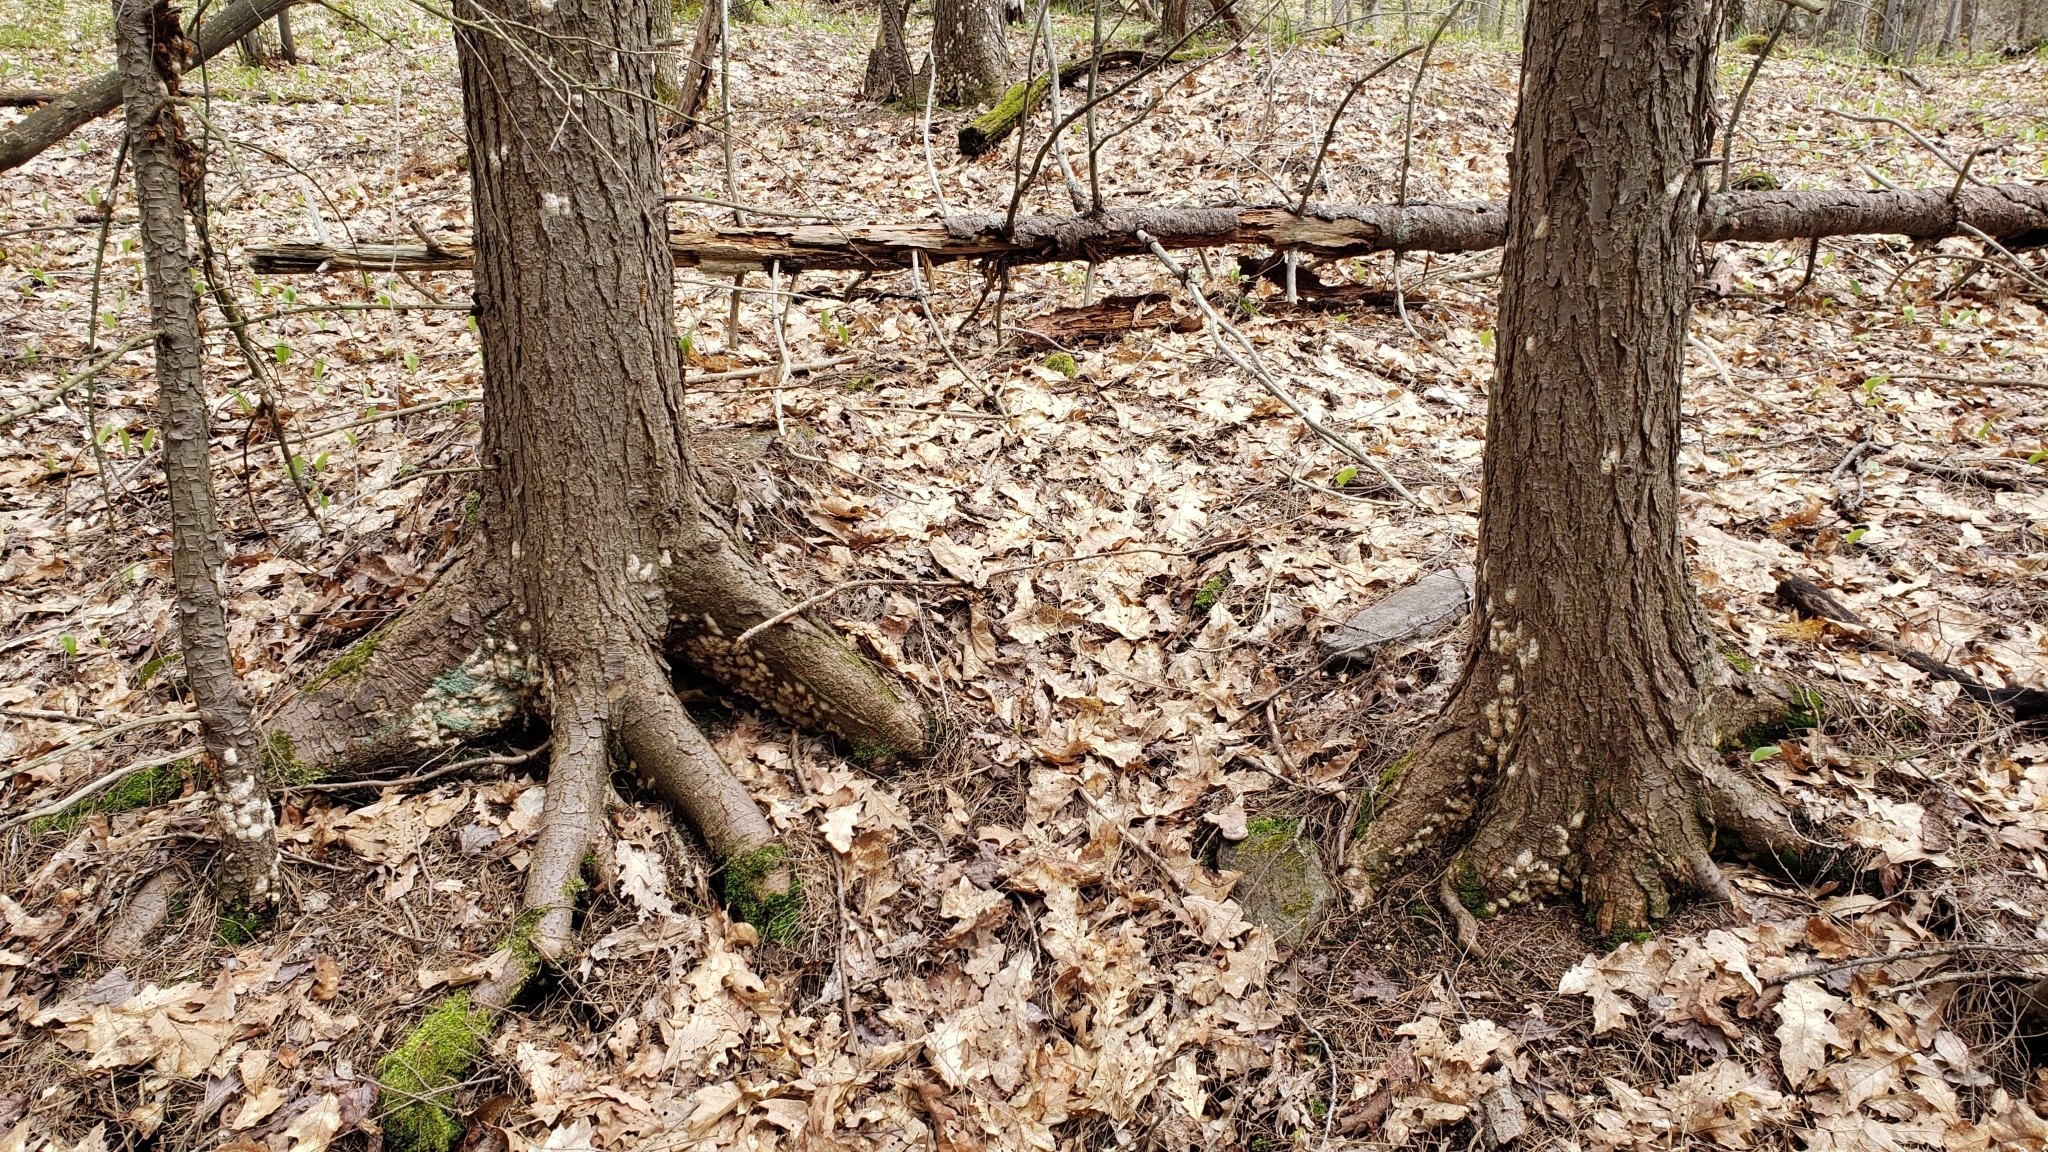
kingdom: Animalia
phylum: Arthropoda
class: Insecta
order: Lepidoptera
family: Erebidae
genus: Lymantria
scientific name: Lymantria dispar
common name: Gypsy moth
